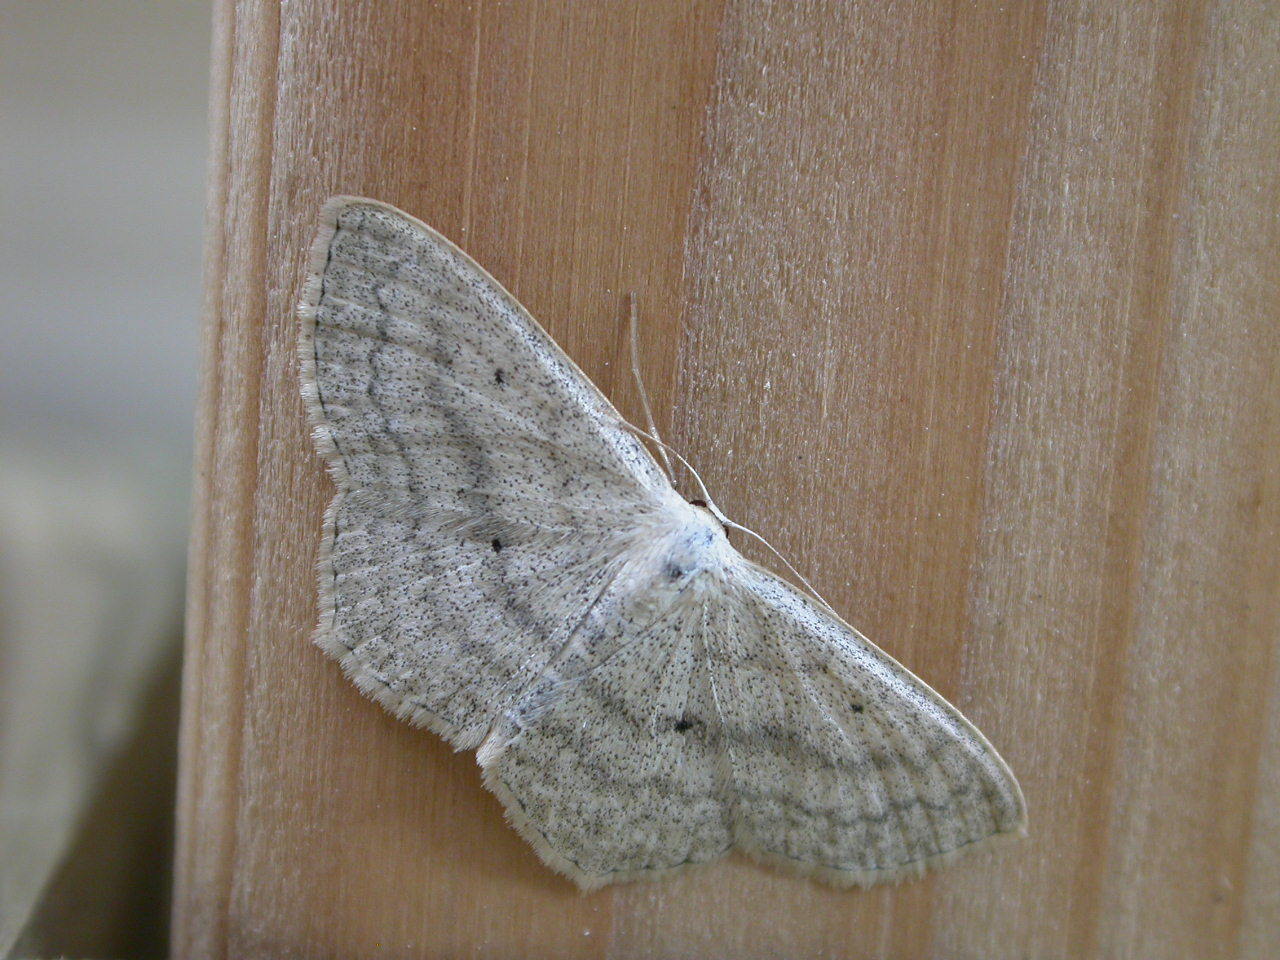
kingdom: Animalia
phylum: Arthropoda
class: Insecta
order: Lepidoptera
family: Geometridae
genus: Scopula
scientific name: Scopula nigropunctata
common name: Sub-angled wave
